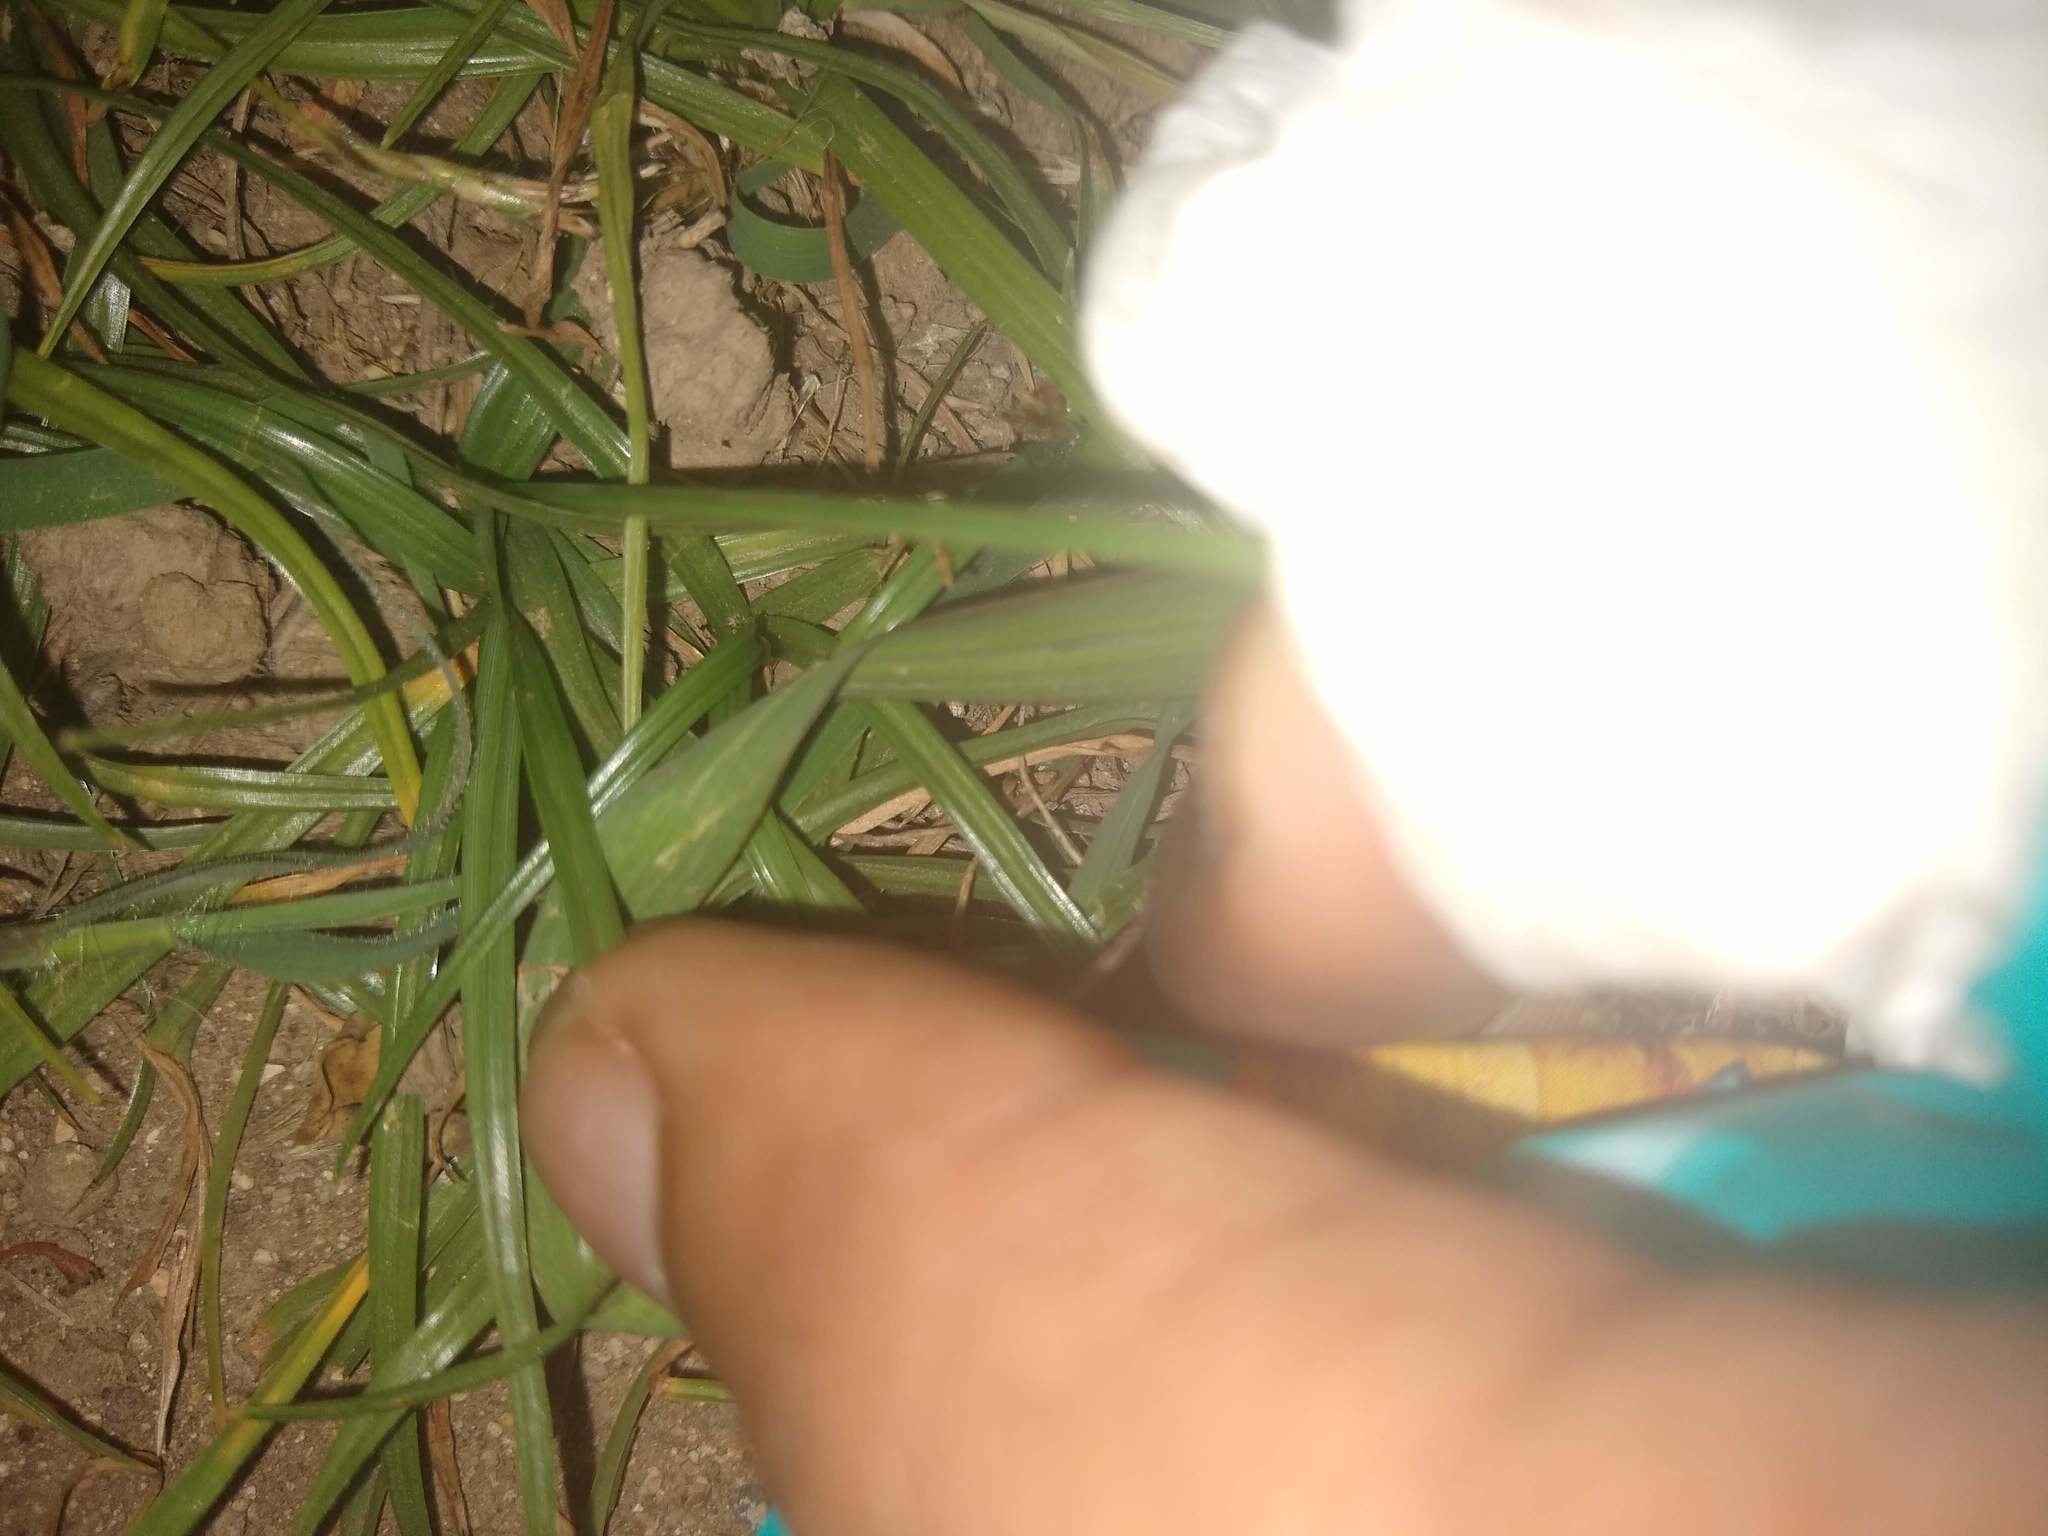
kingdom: Plantae
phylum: Tracheophyta
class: Liliopsida
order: Poales
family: Cyperaceae
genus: Cyperus
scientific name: Cyperus rotundus
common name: Nutgrass
